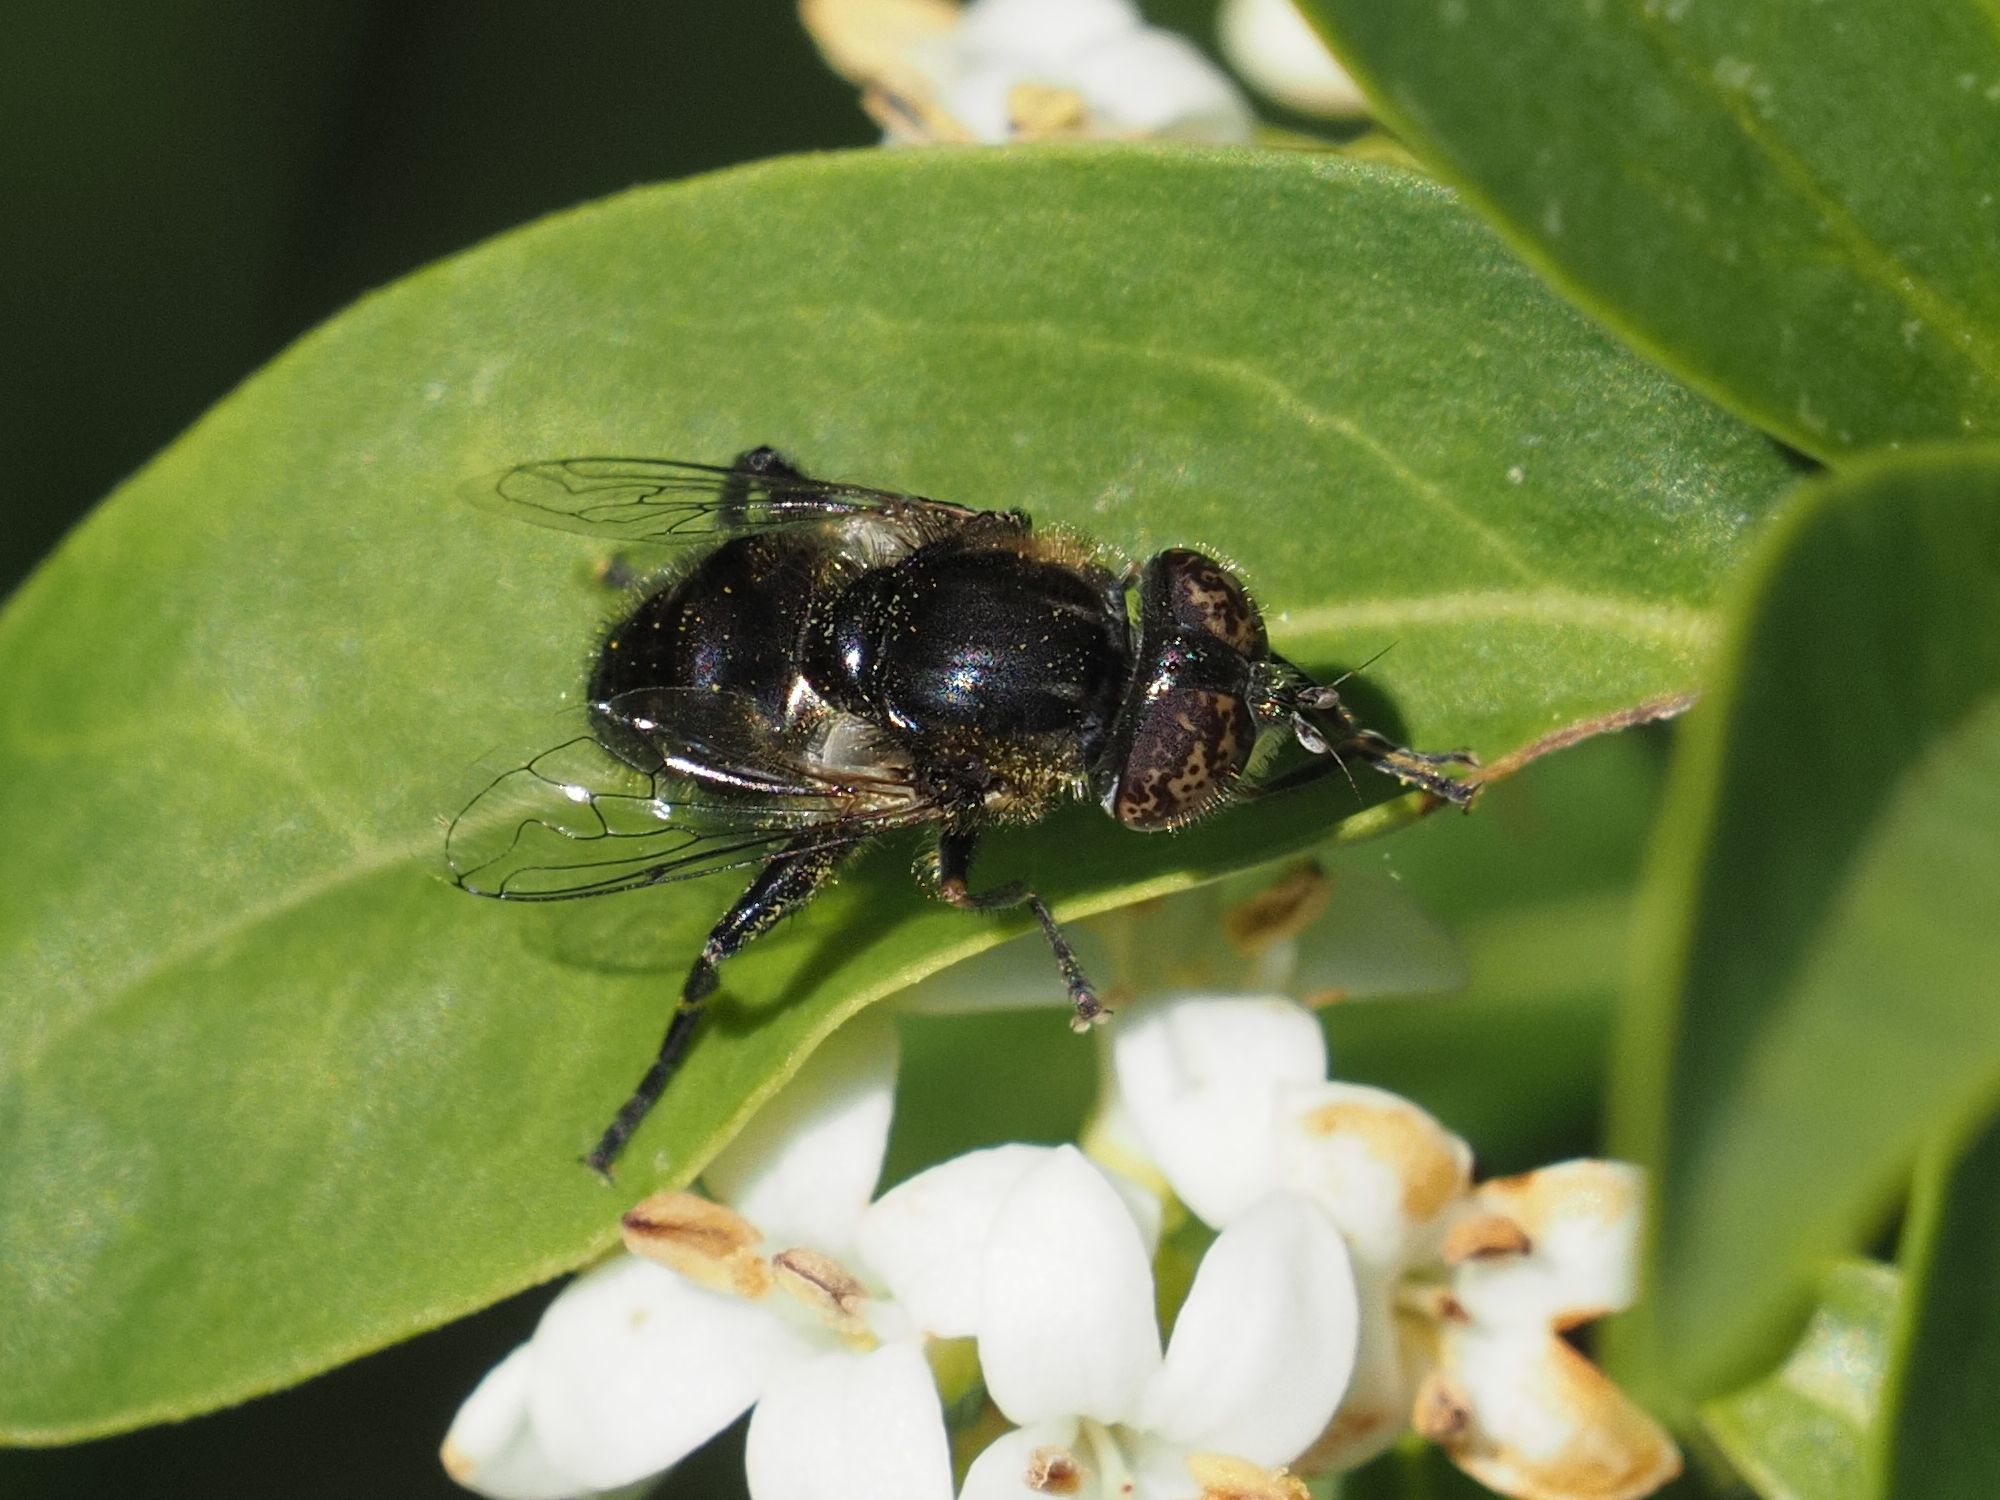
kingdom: Animalia
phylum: Arthropoda
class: Insecta
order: Diptera
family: Syrphidae
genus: Eristalinus
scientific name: Eristalinus sepulchralis
